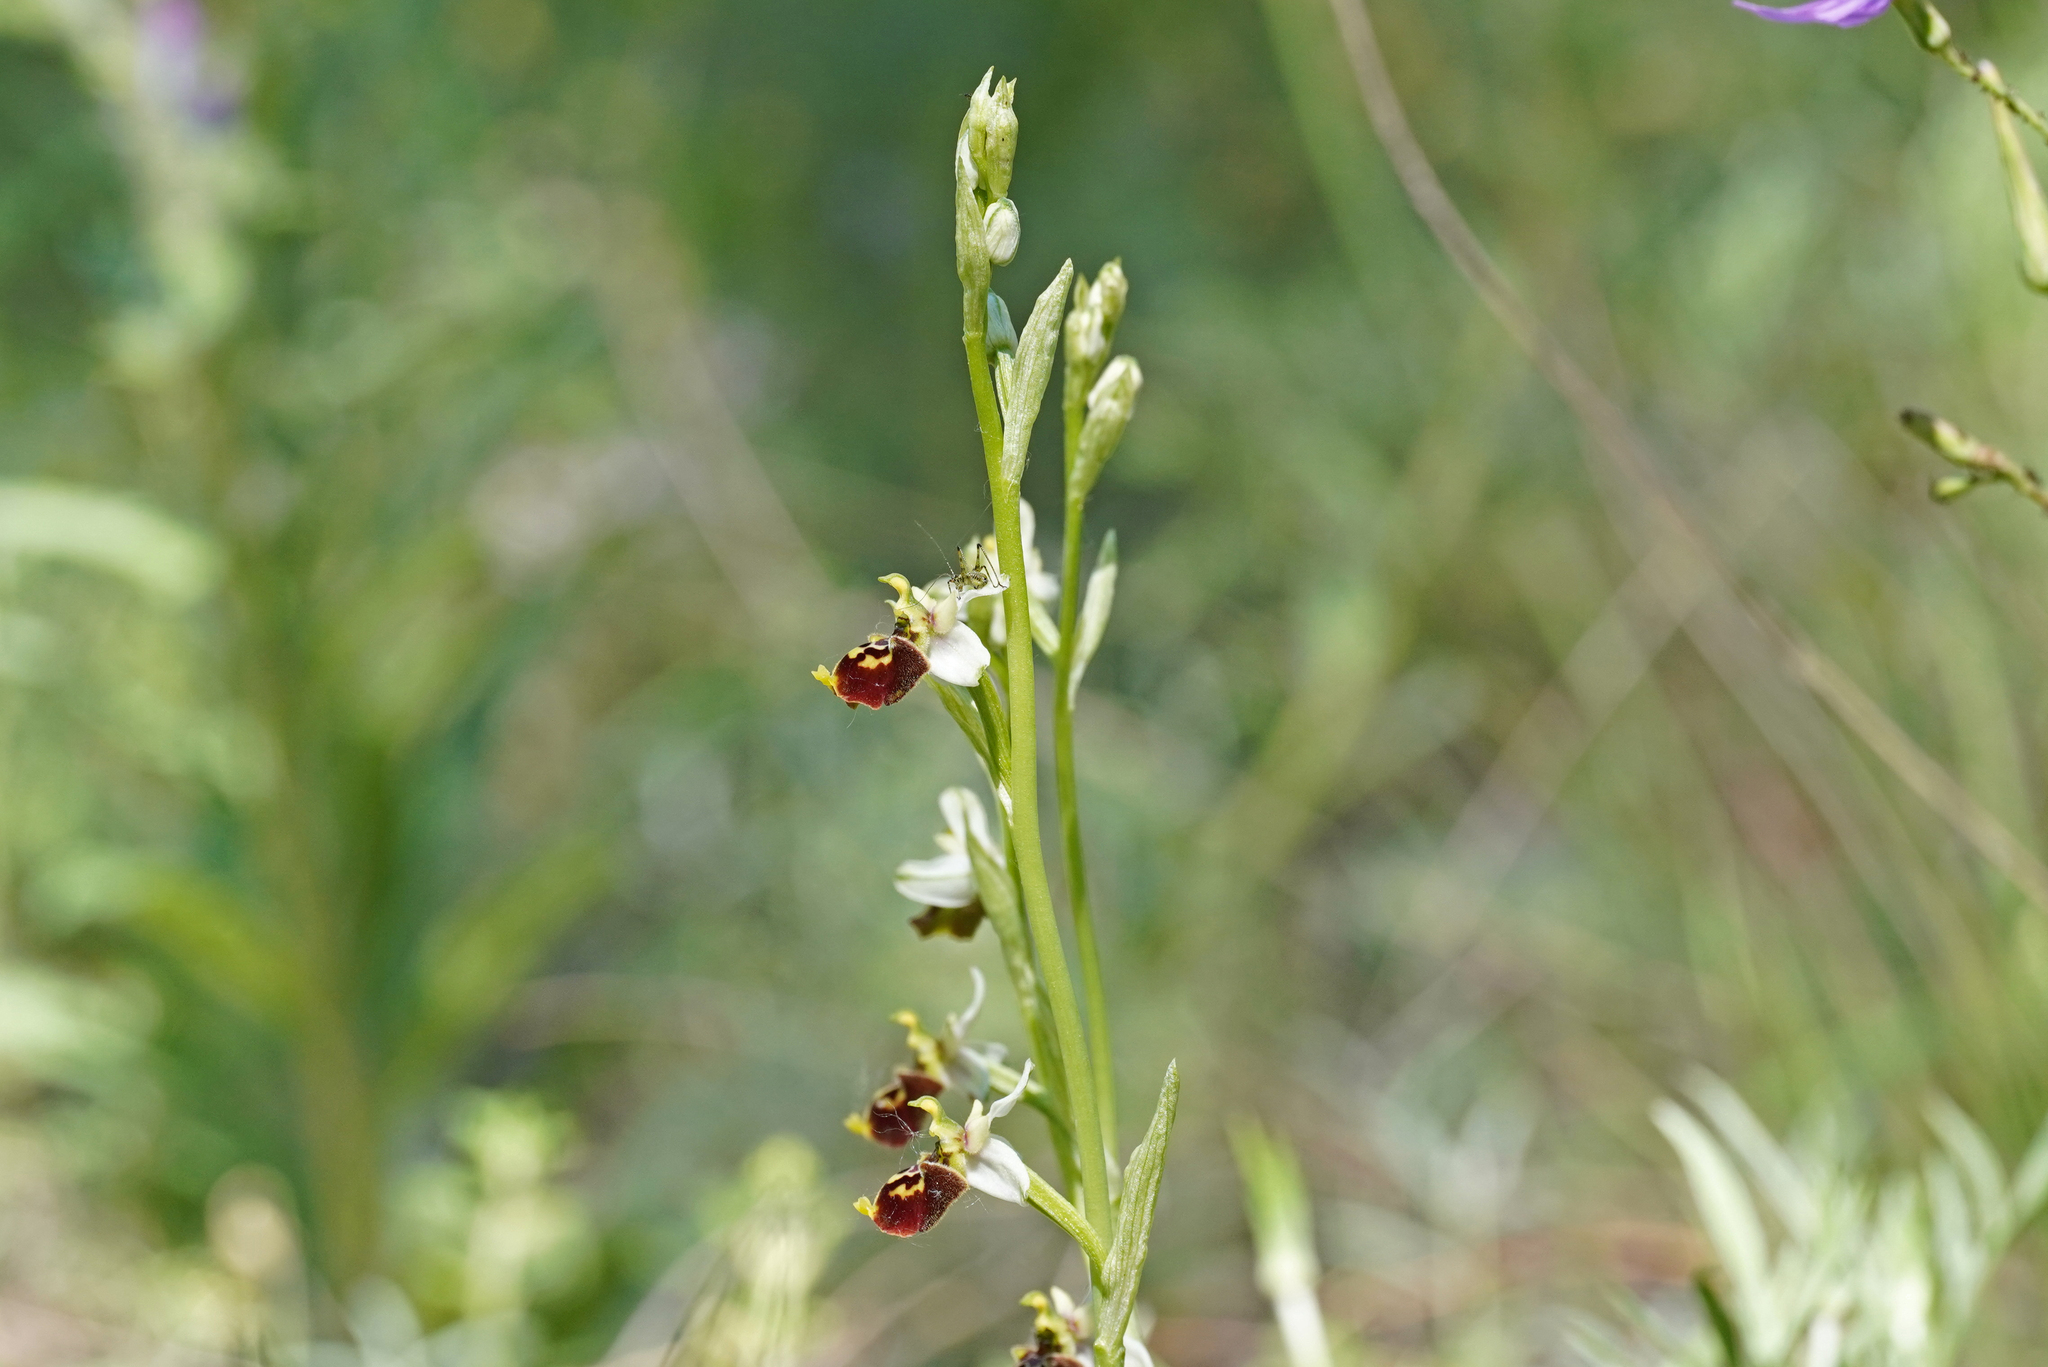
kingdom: Plantae
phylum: Tracheophyta
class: Liliopsida
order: Asparagales
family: Orchidaceae
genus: Ophrys
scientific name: Ophrys scolopax
